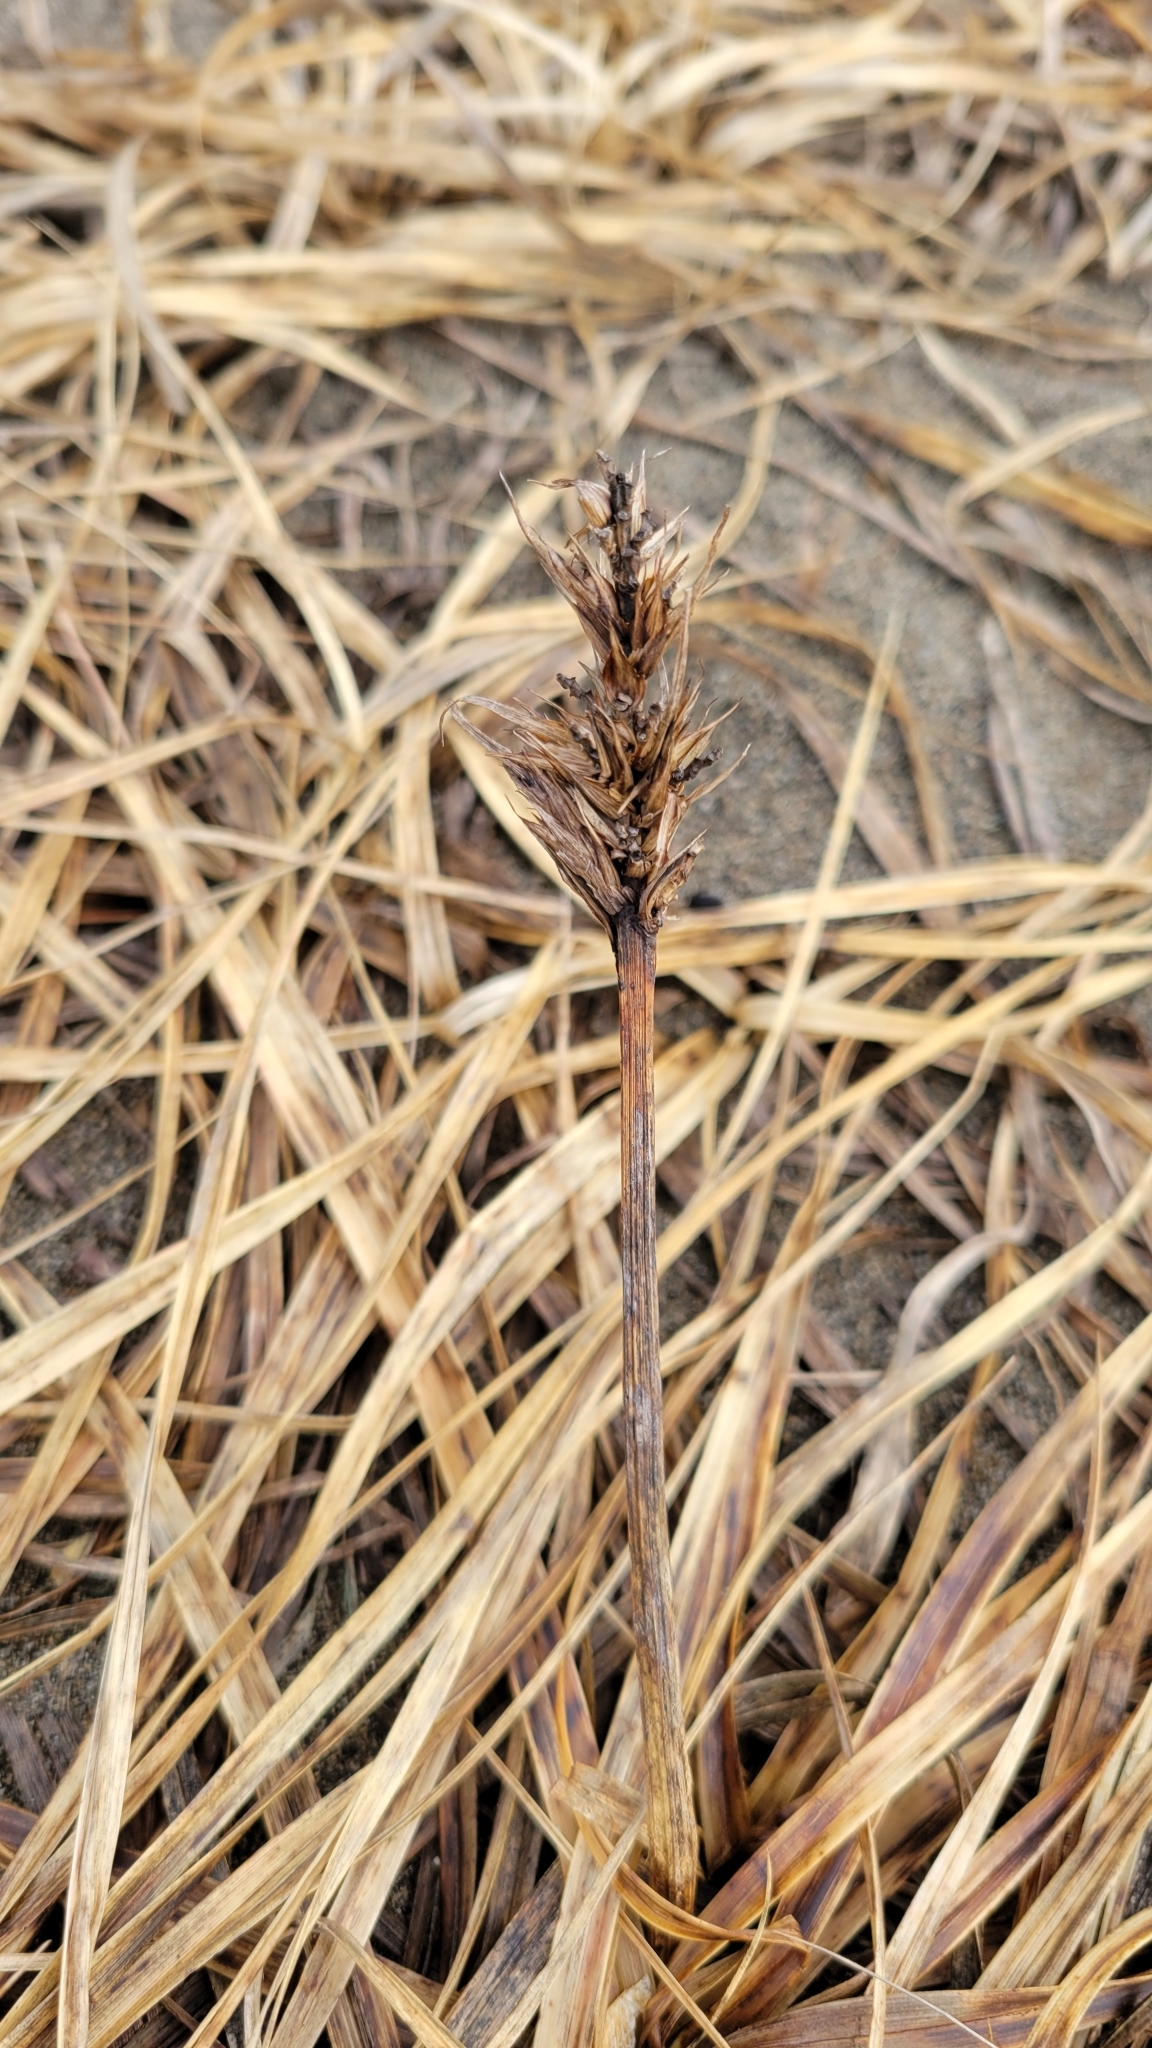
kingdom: Plantae
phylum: Tracheophyta
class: Liliopsida
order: Poales
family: Cyperaceae
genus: Carex
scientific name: Carex macrocephala
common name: Large-head sedge
